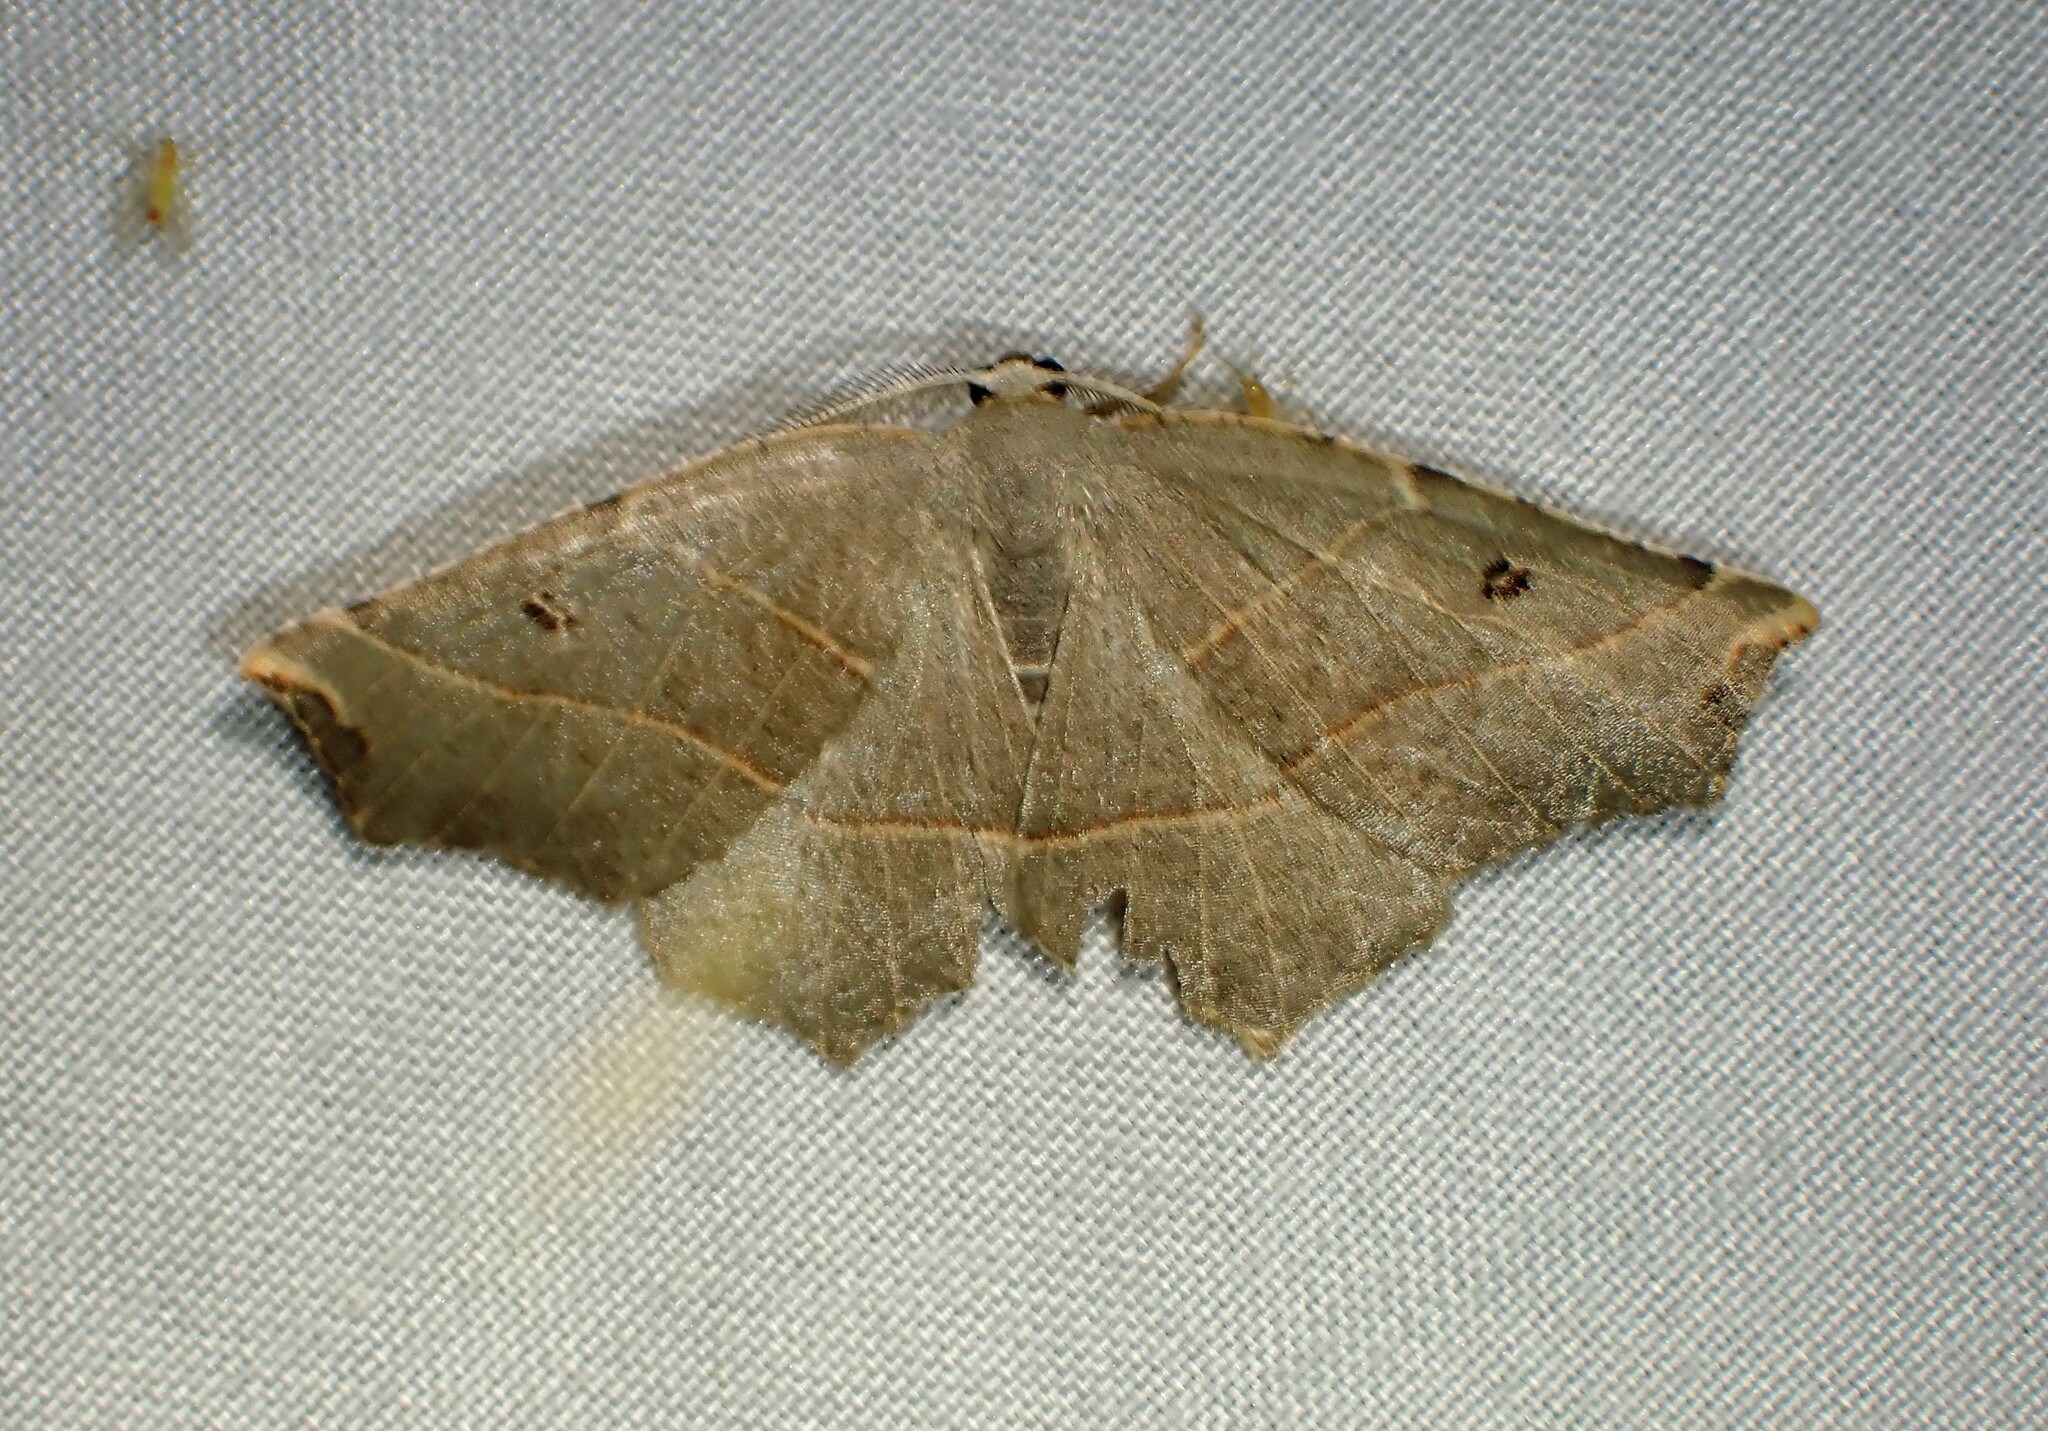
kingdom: Animalia
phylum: Arthropoda
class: Insecta
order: Lepidoptera
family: Geometridae
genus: Metanema
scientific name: Metanema inatomaria
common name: Pale metanema
